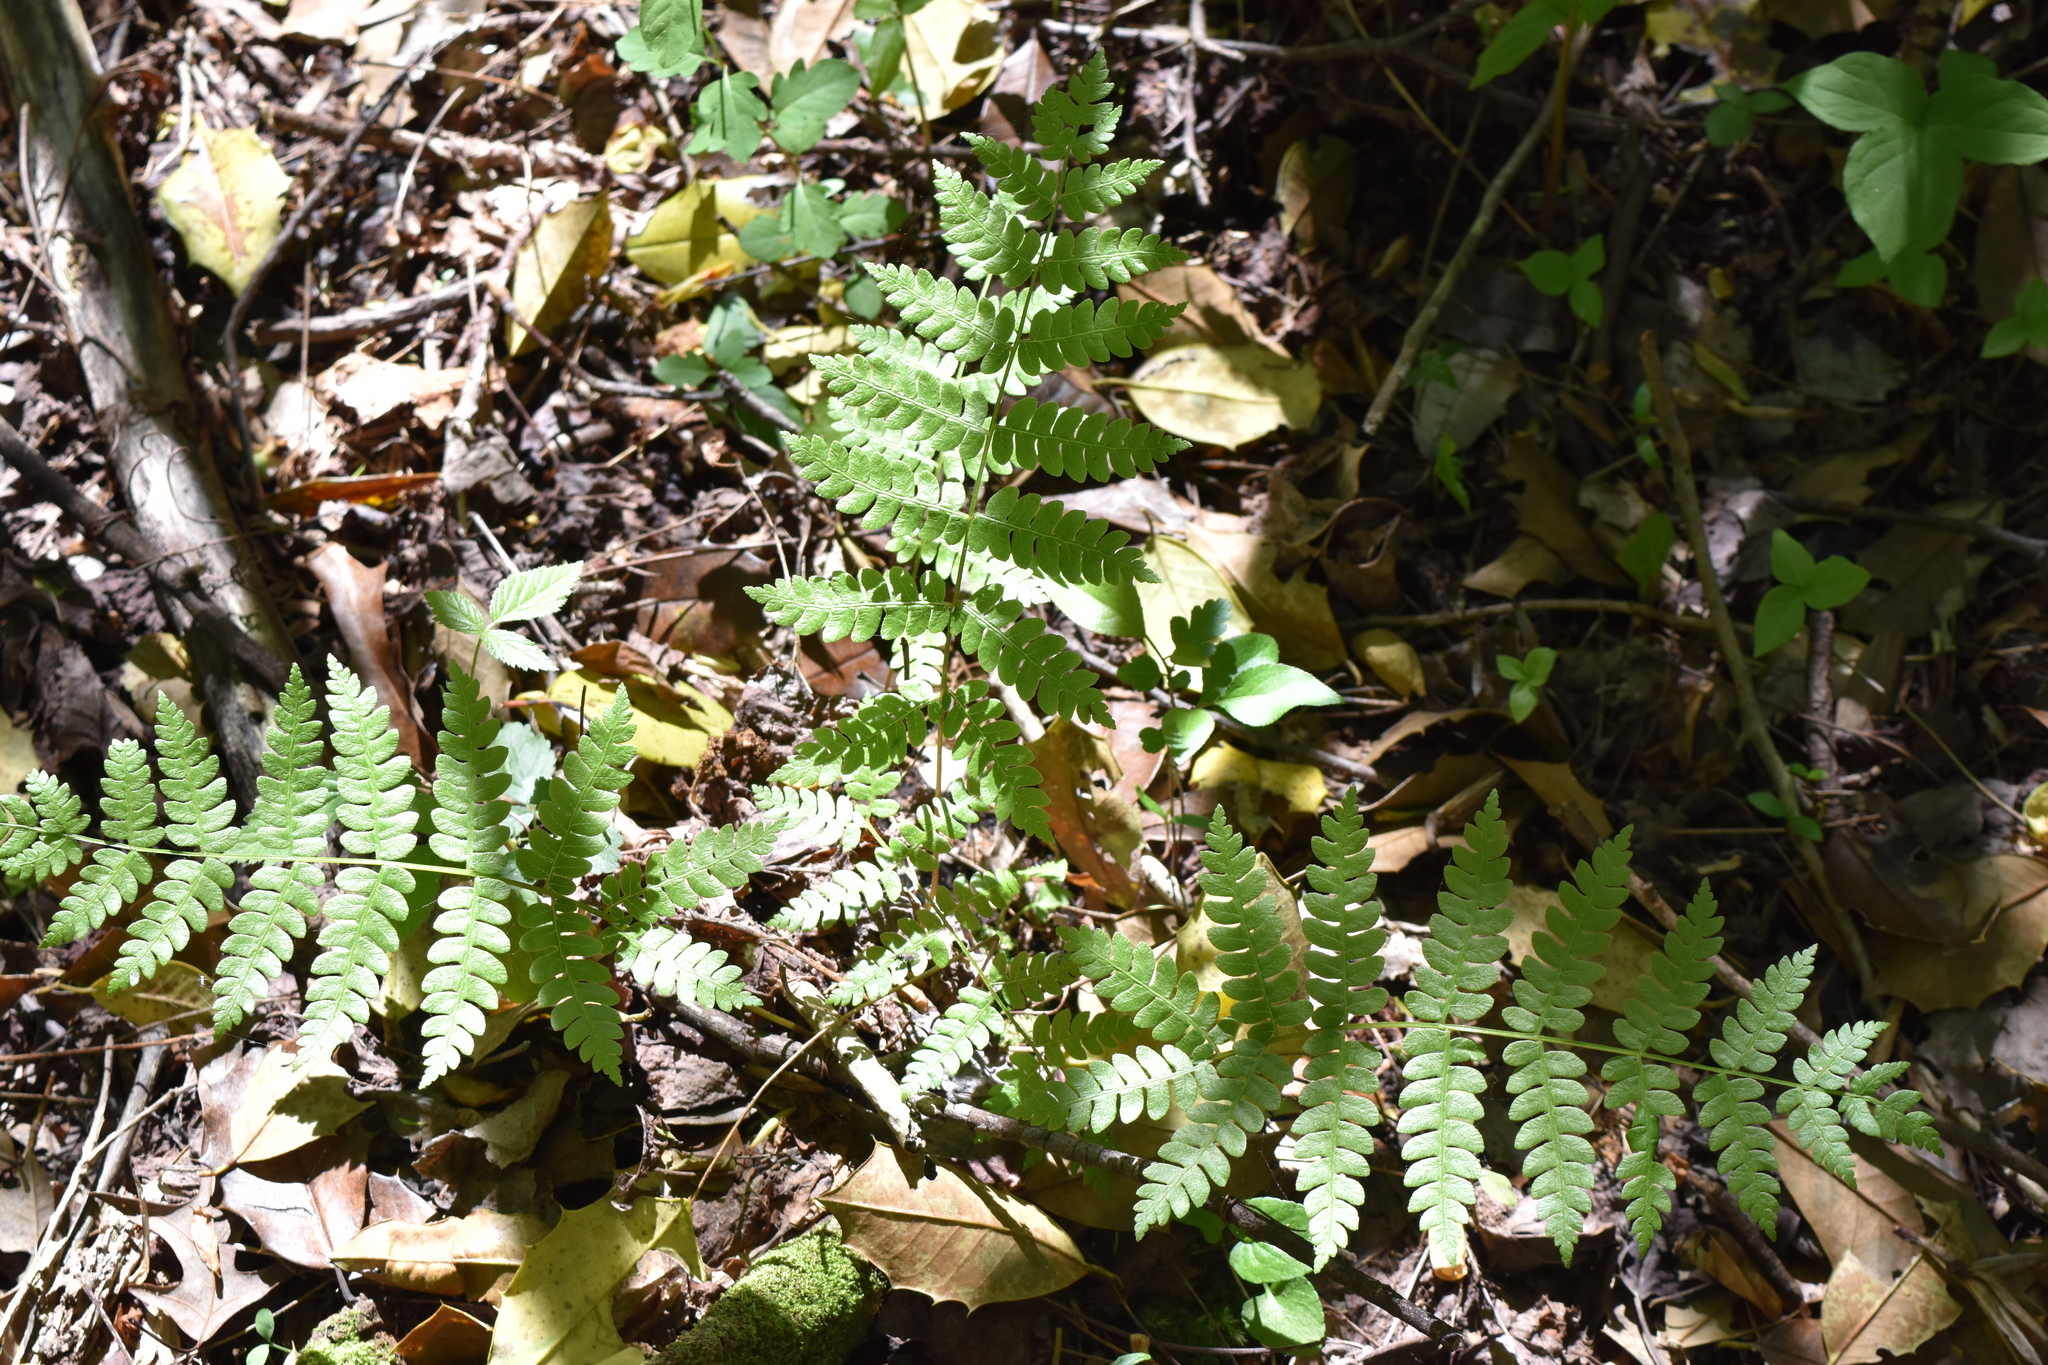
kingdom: Plantae
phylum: Tracheophyta
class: Polypodiopsida
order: Osmundales
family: Osmundaceae
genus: Osmundastrum
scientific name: Osmundastrum cinnamomeum
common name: Cinnamon fern
